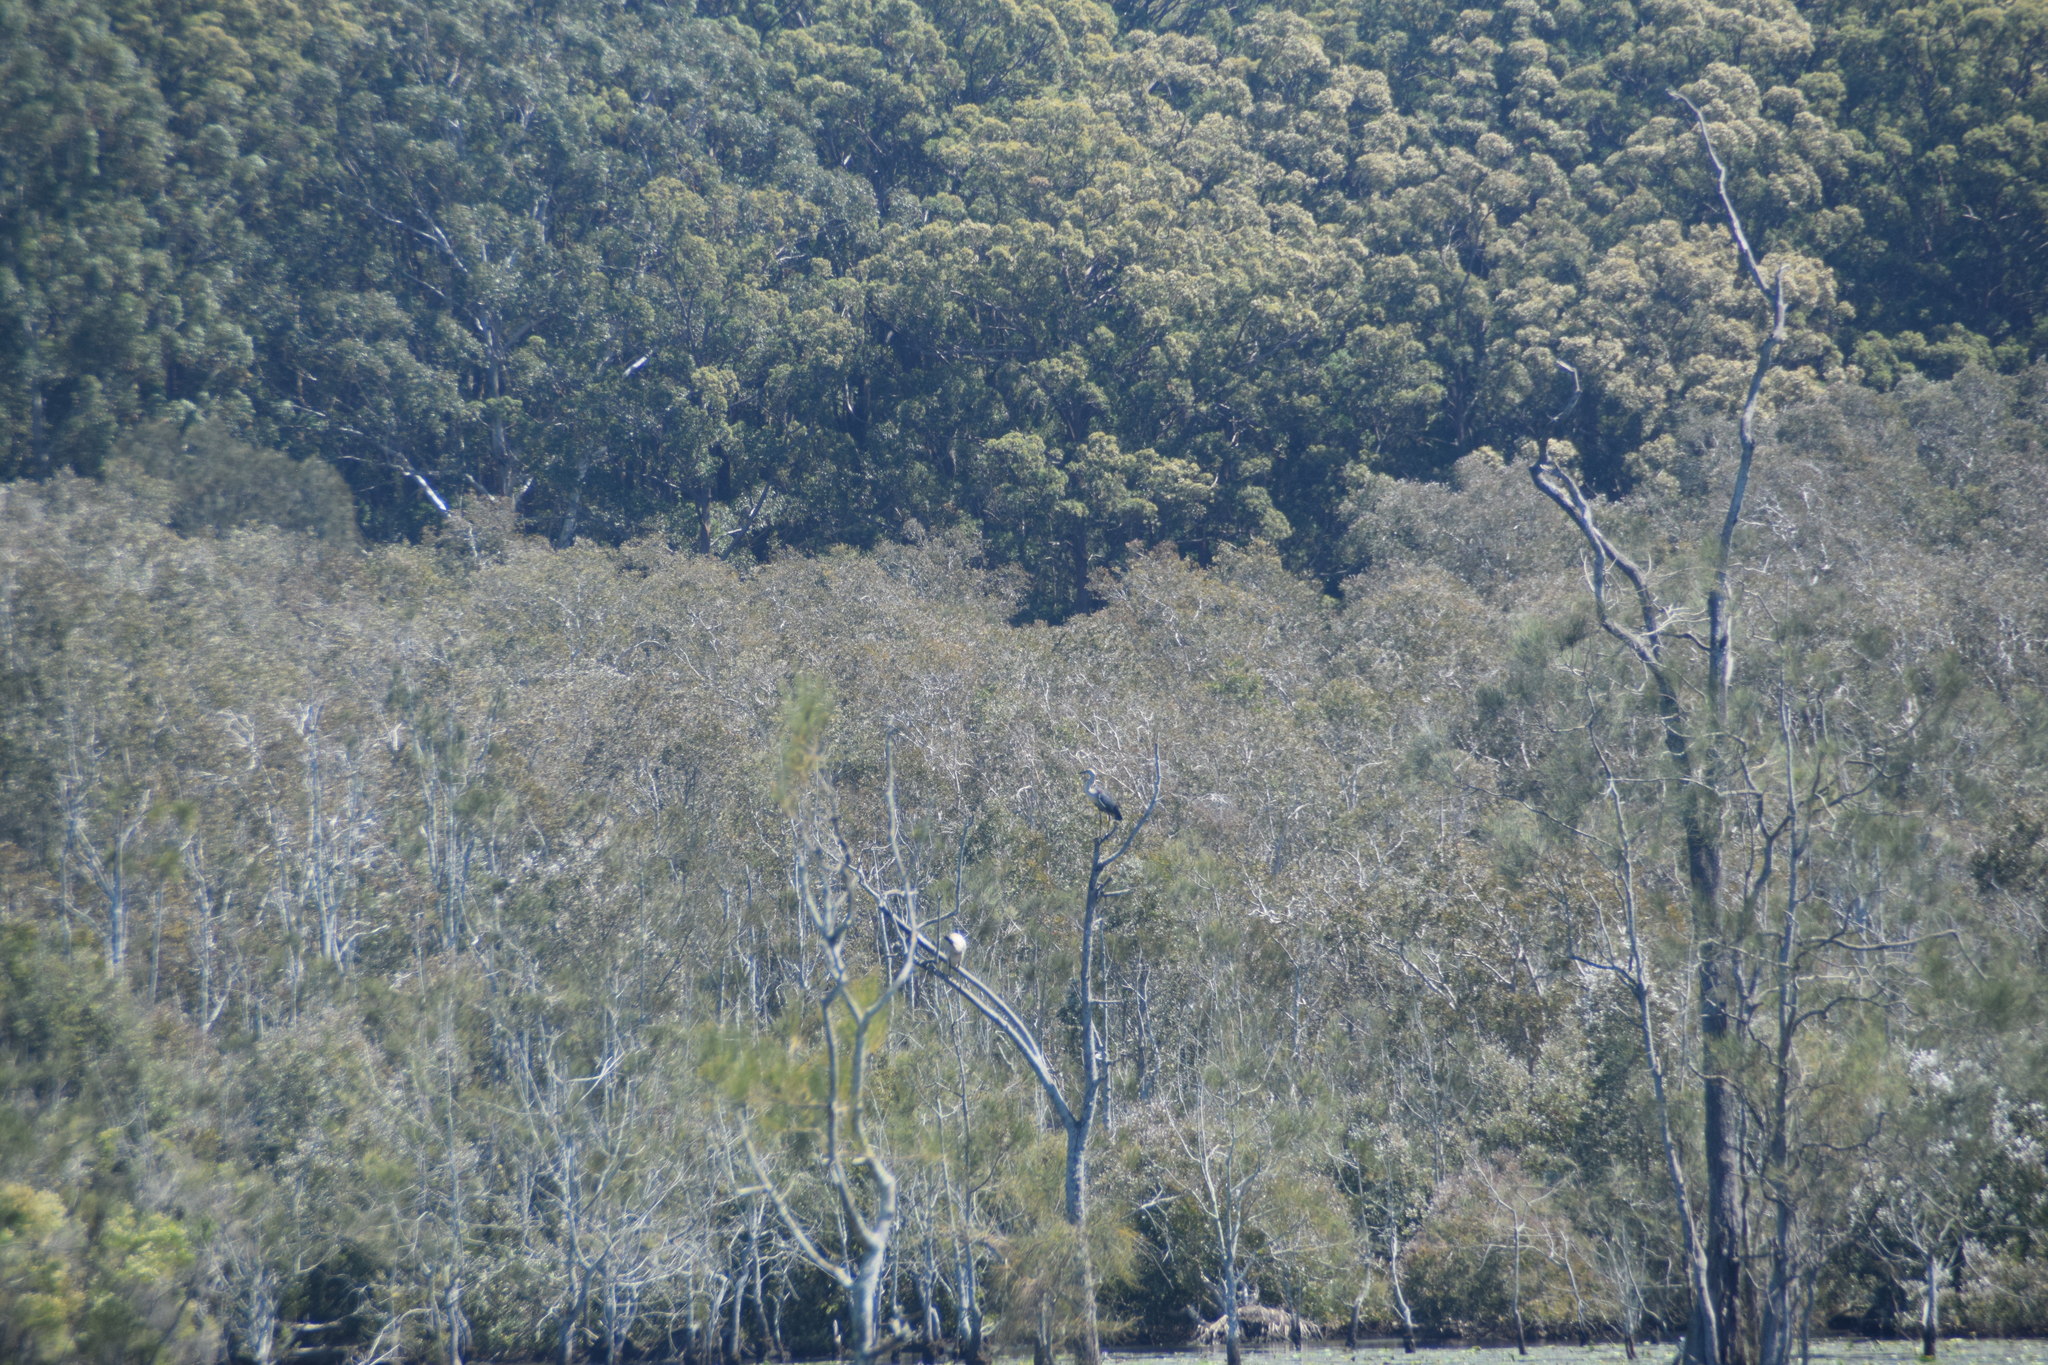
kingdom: Animalia
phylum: Chordata
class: Aves
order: Pelecaniformes
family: Ardeidae
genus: Ardea
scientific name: Ardea pacifica
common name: White-necked heron
